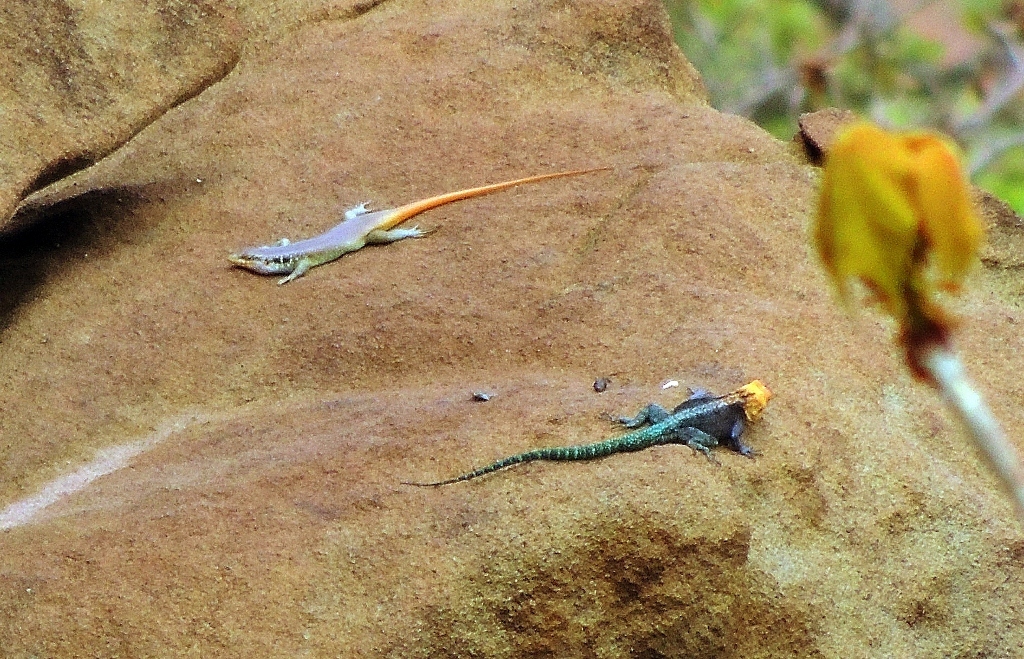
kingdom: Animalia
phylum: Chordata
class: Squamata
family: Agamidae
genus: Agama
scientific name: Agama kirkii
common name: Kirk's rock agama
